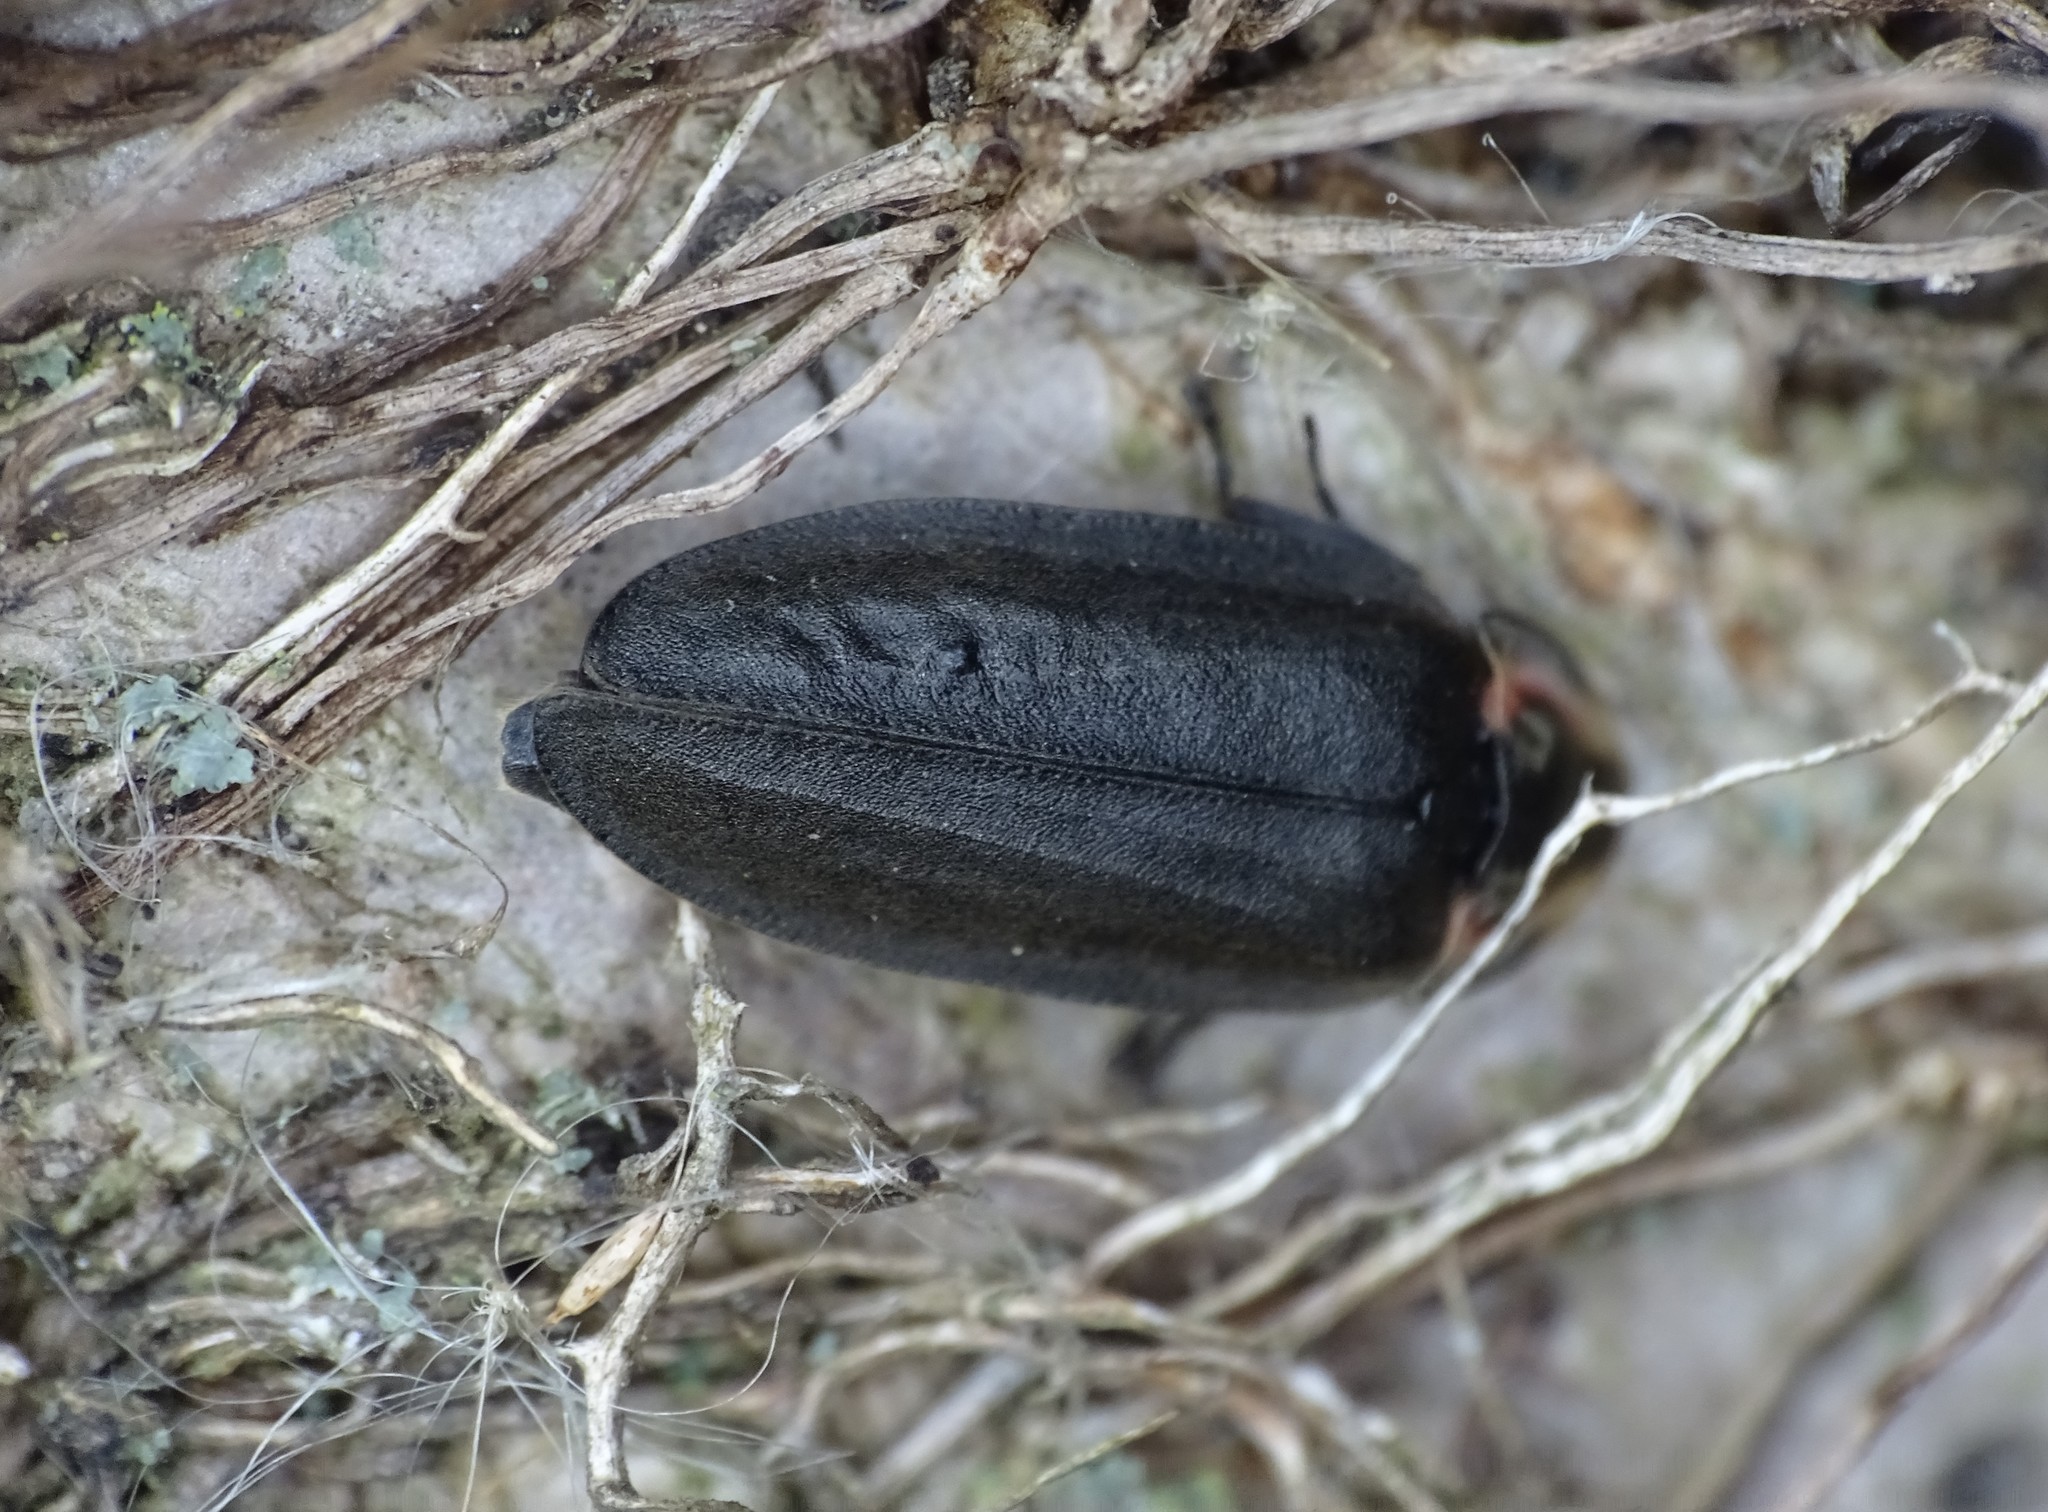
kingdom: Animalia
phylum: Arthropoda
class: Insecta
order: Coleoptera
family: Lampyridae
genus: Photinus
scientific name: Photinus corrusca
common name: Winter firefly
